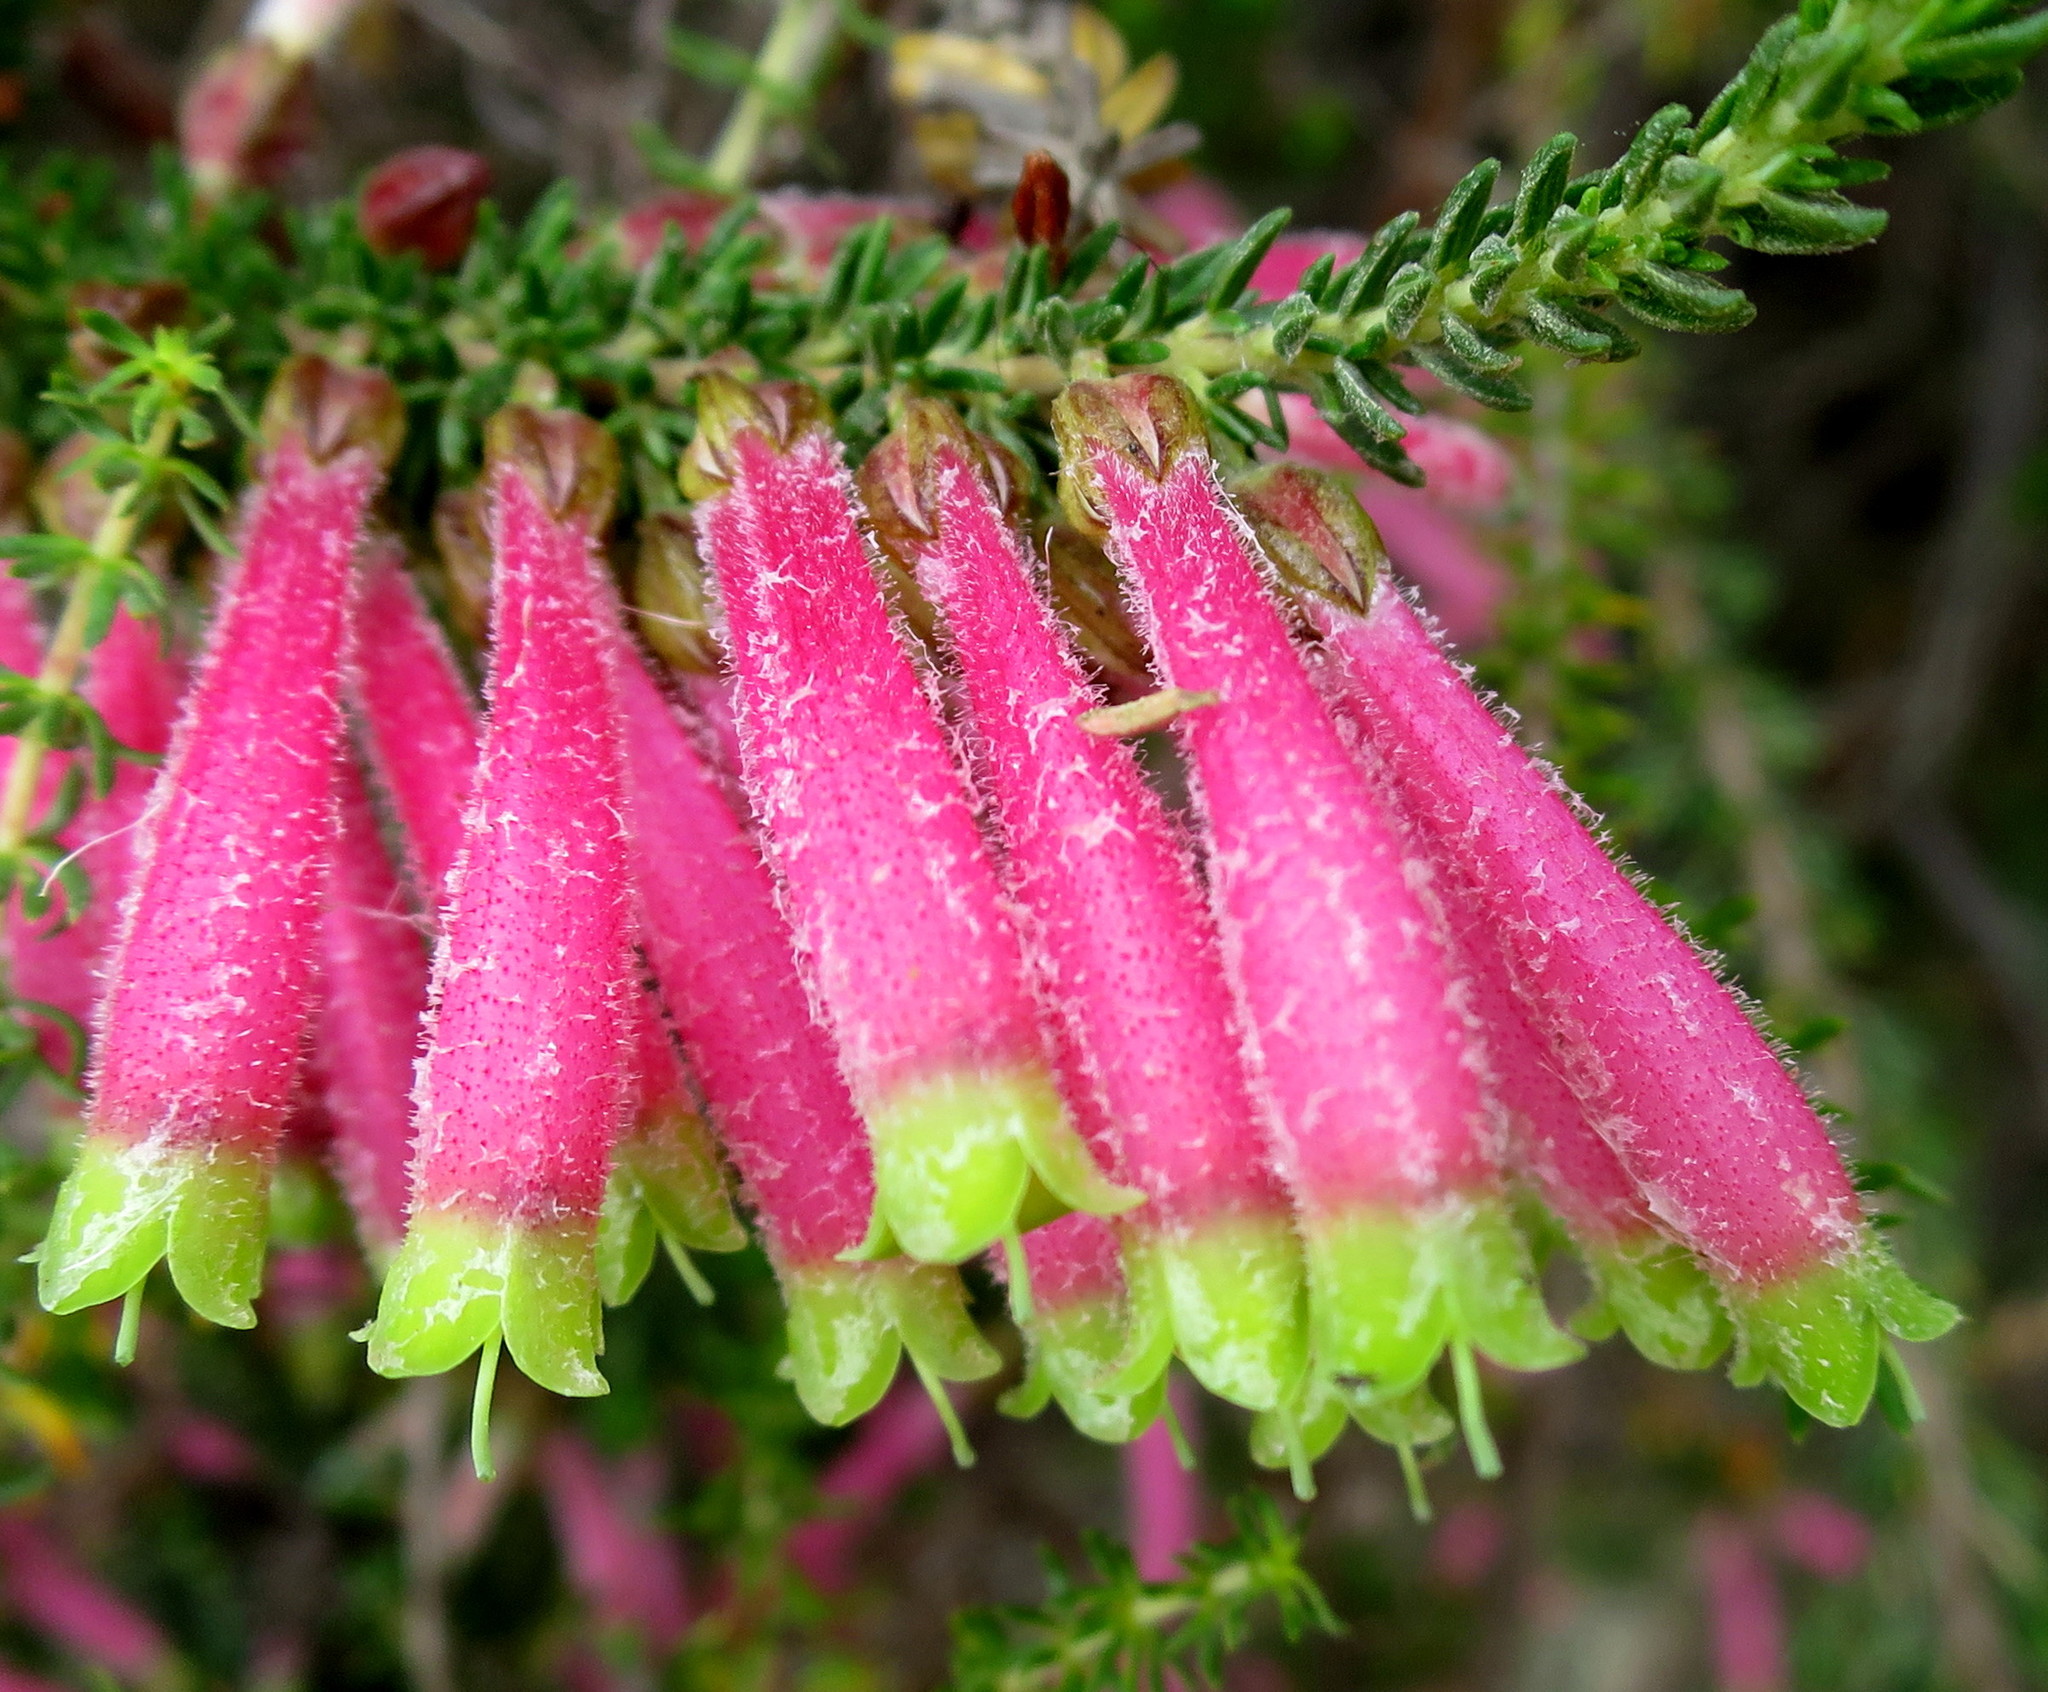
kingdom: Plantae
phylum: Tracheophyta
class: Magnoliopsida
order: Ericales
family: Ericaceae
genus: Erica
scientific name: Erica densifolia
